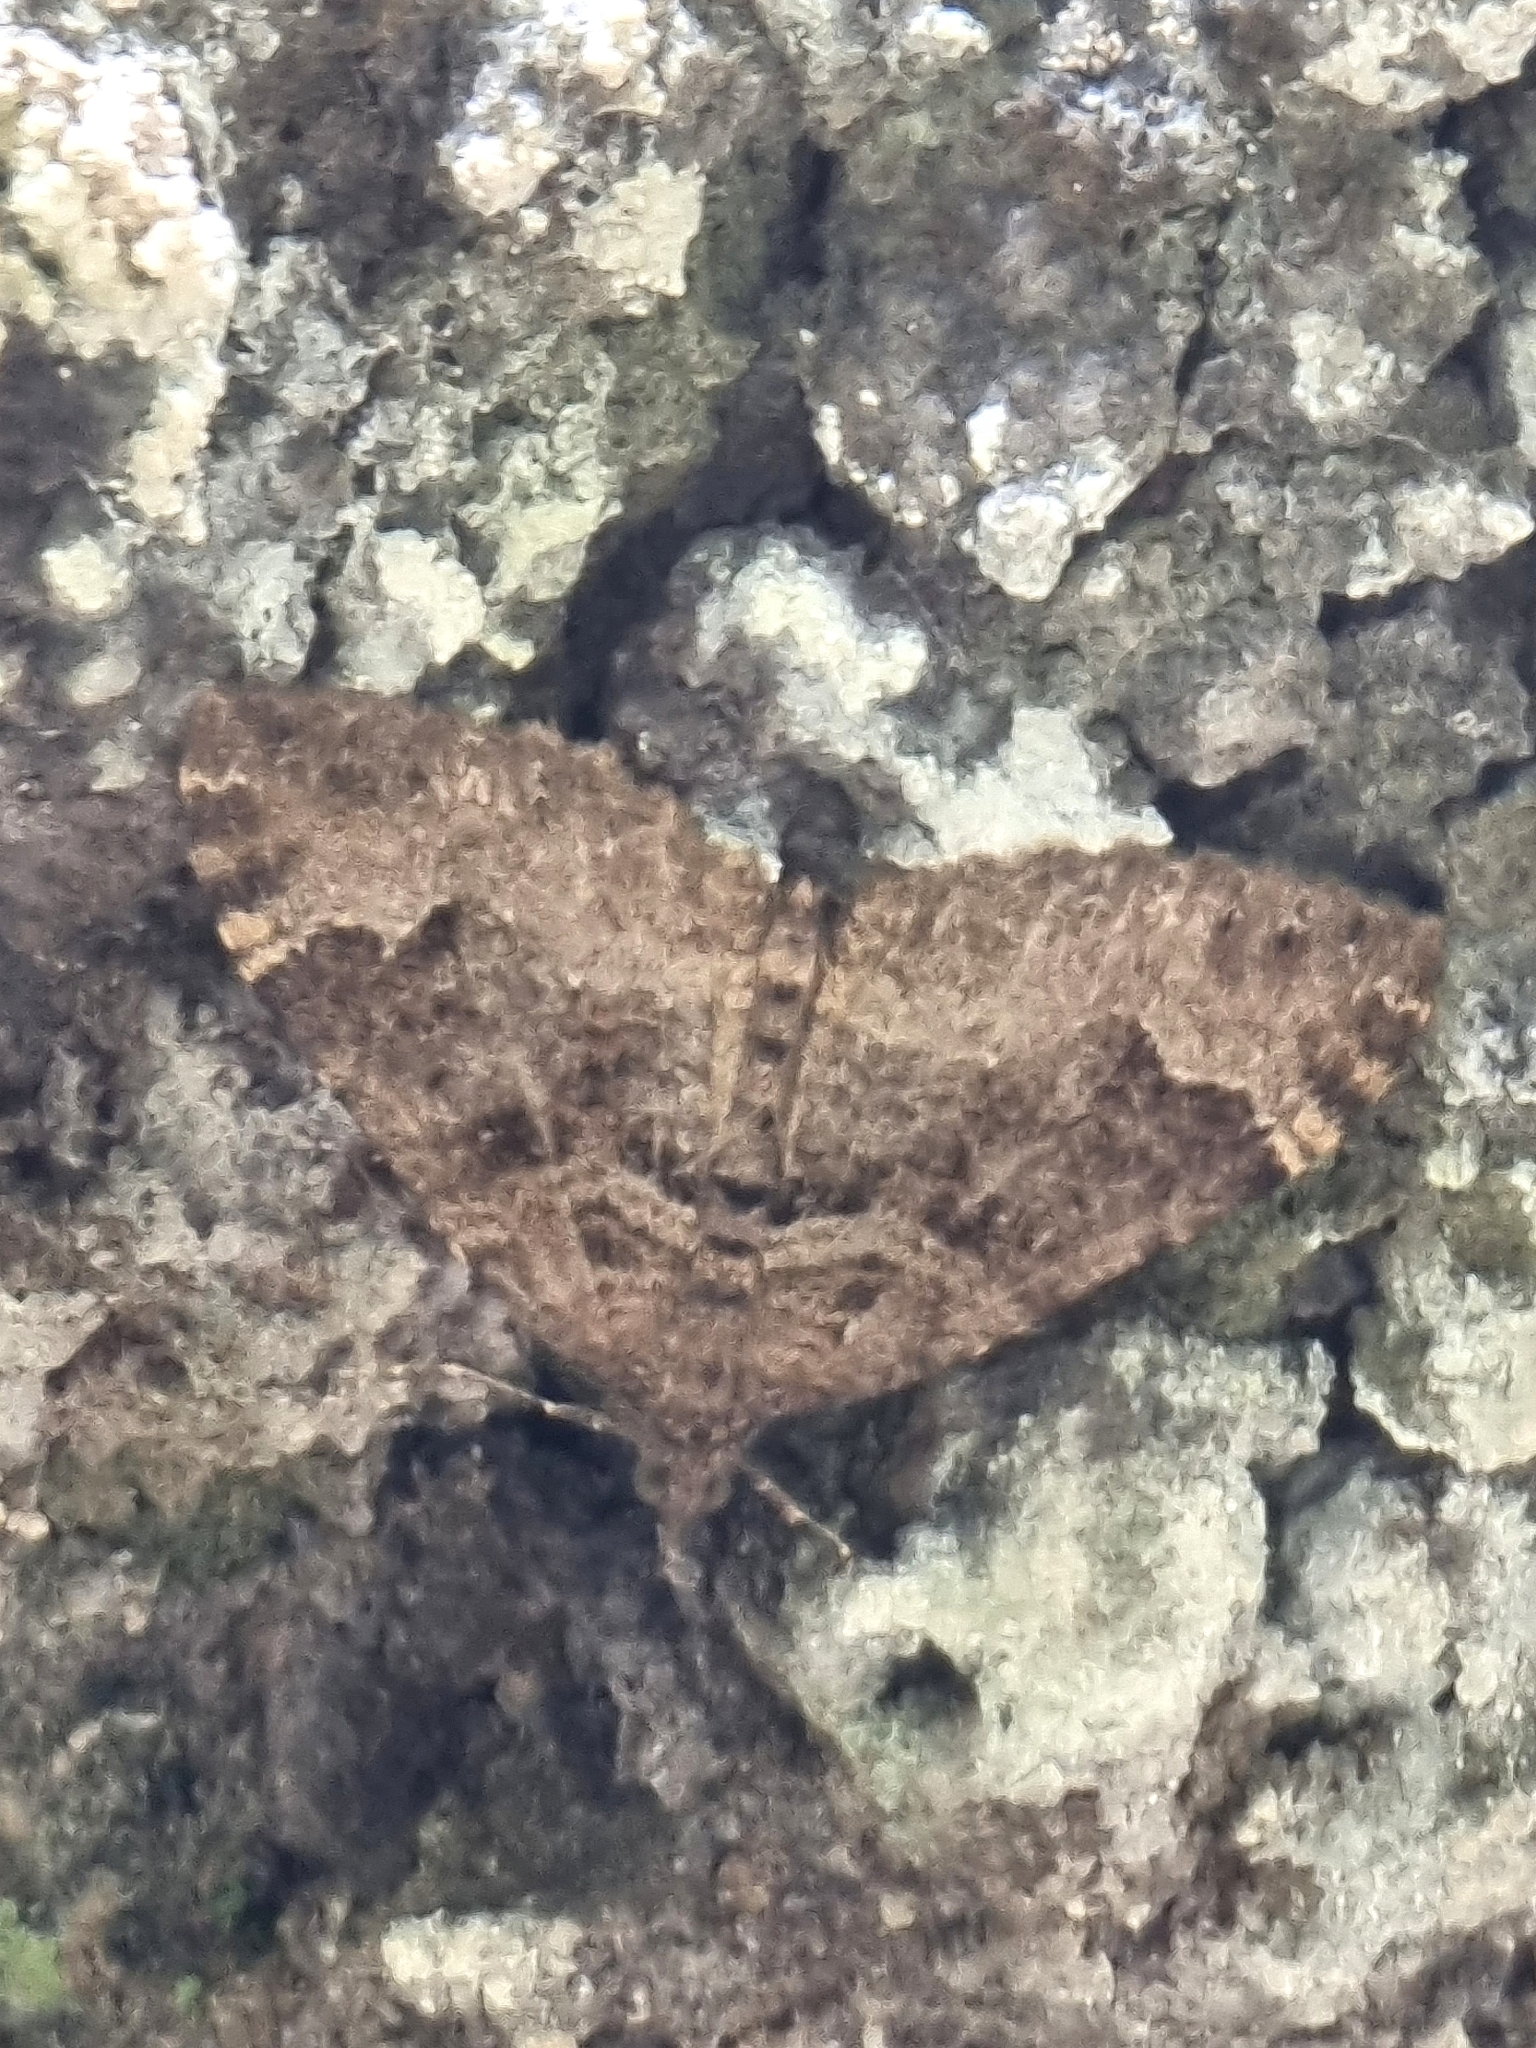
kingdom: Animalia
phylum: Arthropoda
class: Insecta
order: Lepidoptera
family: Geometridae
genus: Xanthorhoe
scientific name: Xanthorhoe rupicola
